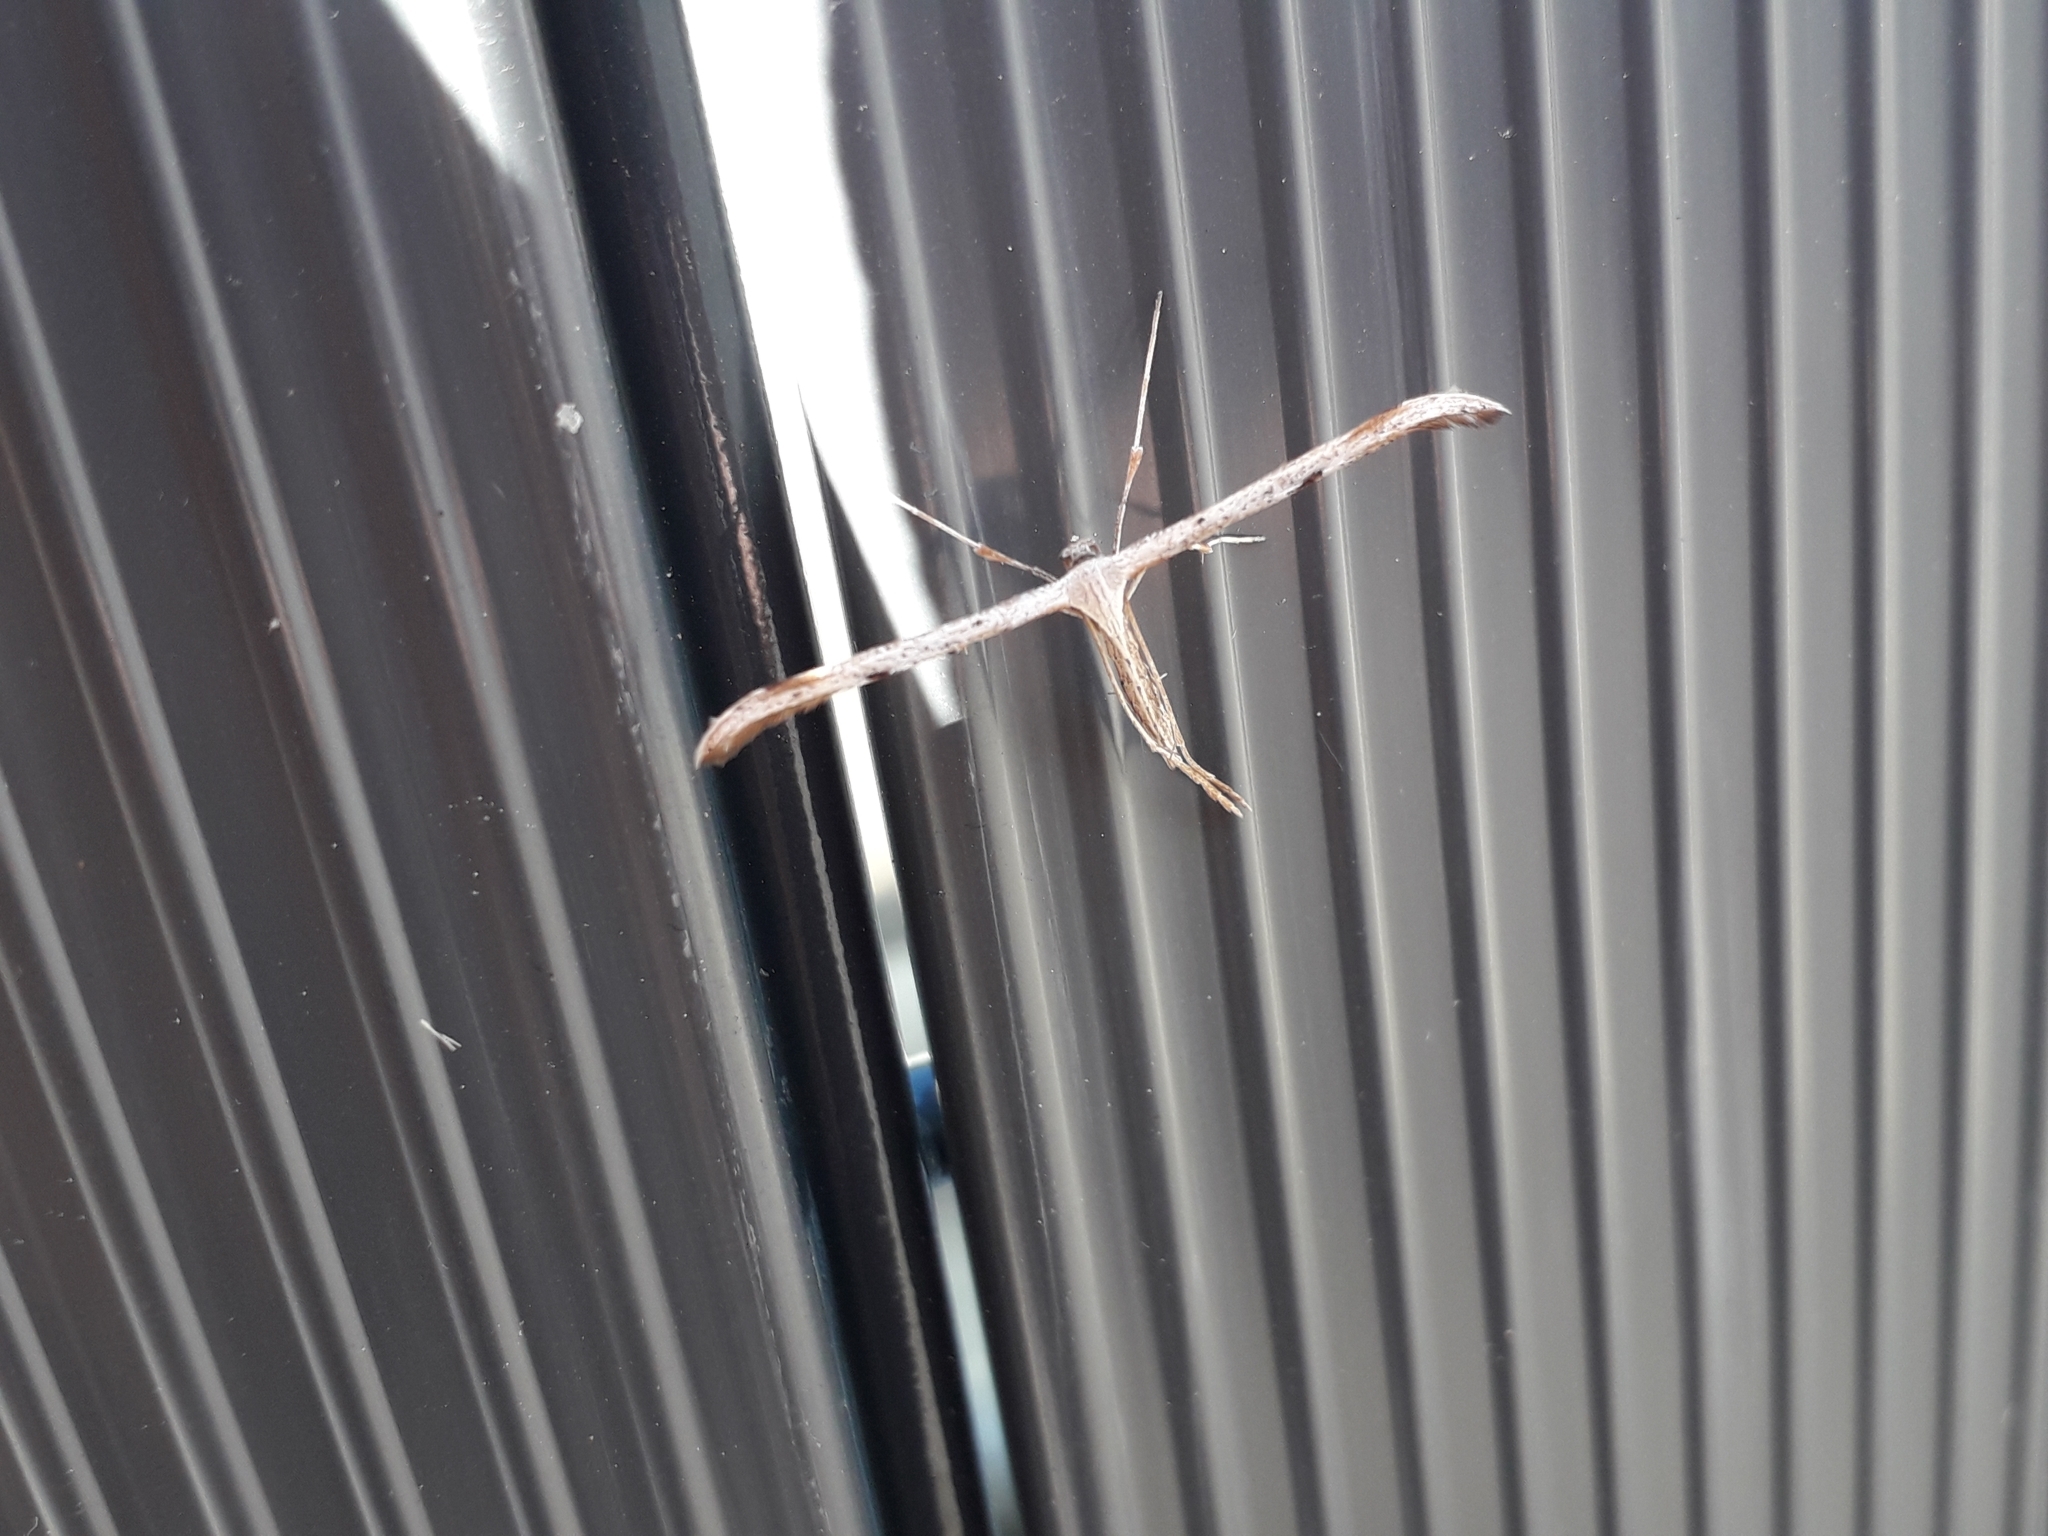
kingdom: Animalia
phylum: Arthropoda
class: Insecta
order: Lepidoptera
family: Pterophoridae
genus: Emmelina
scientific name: Emmelina
